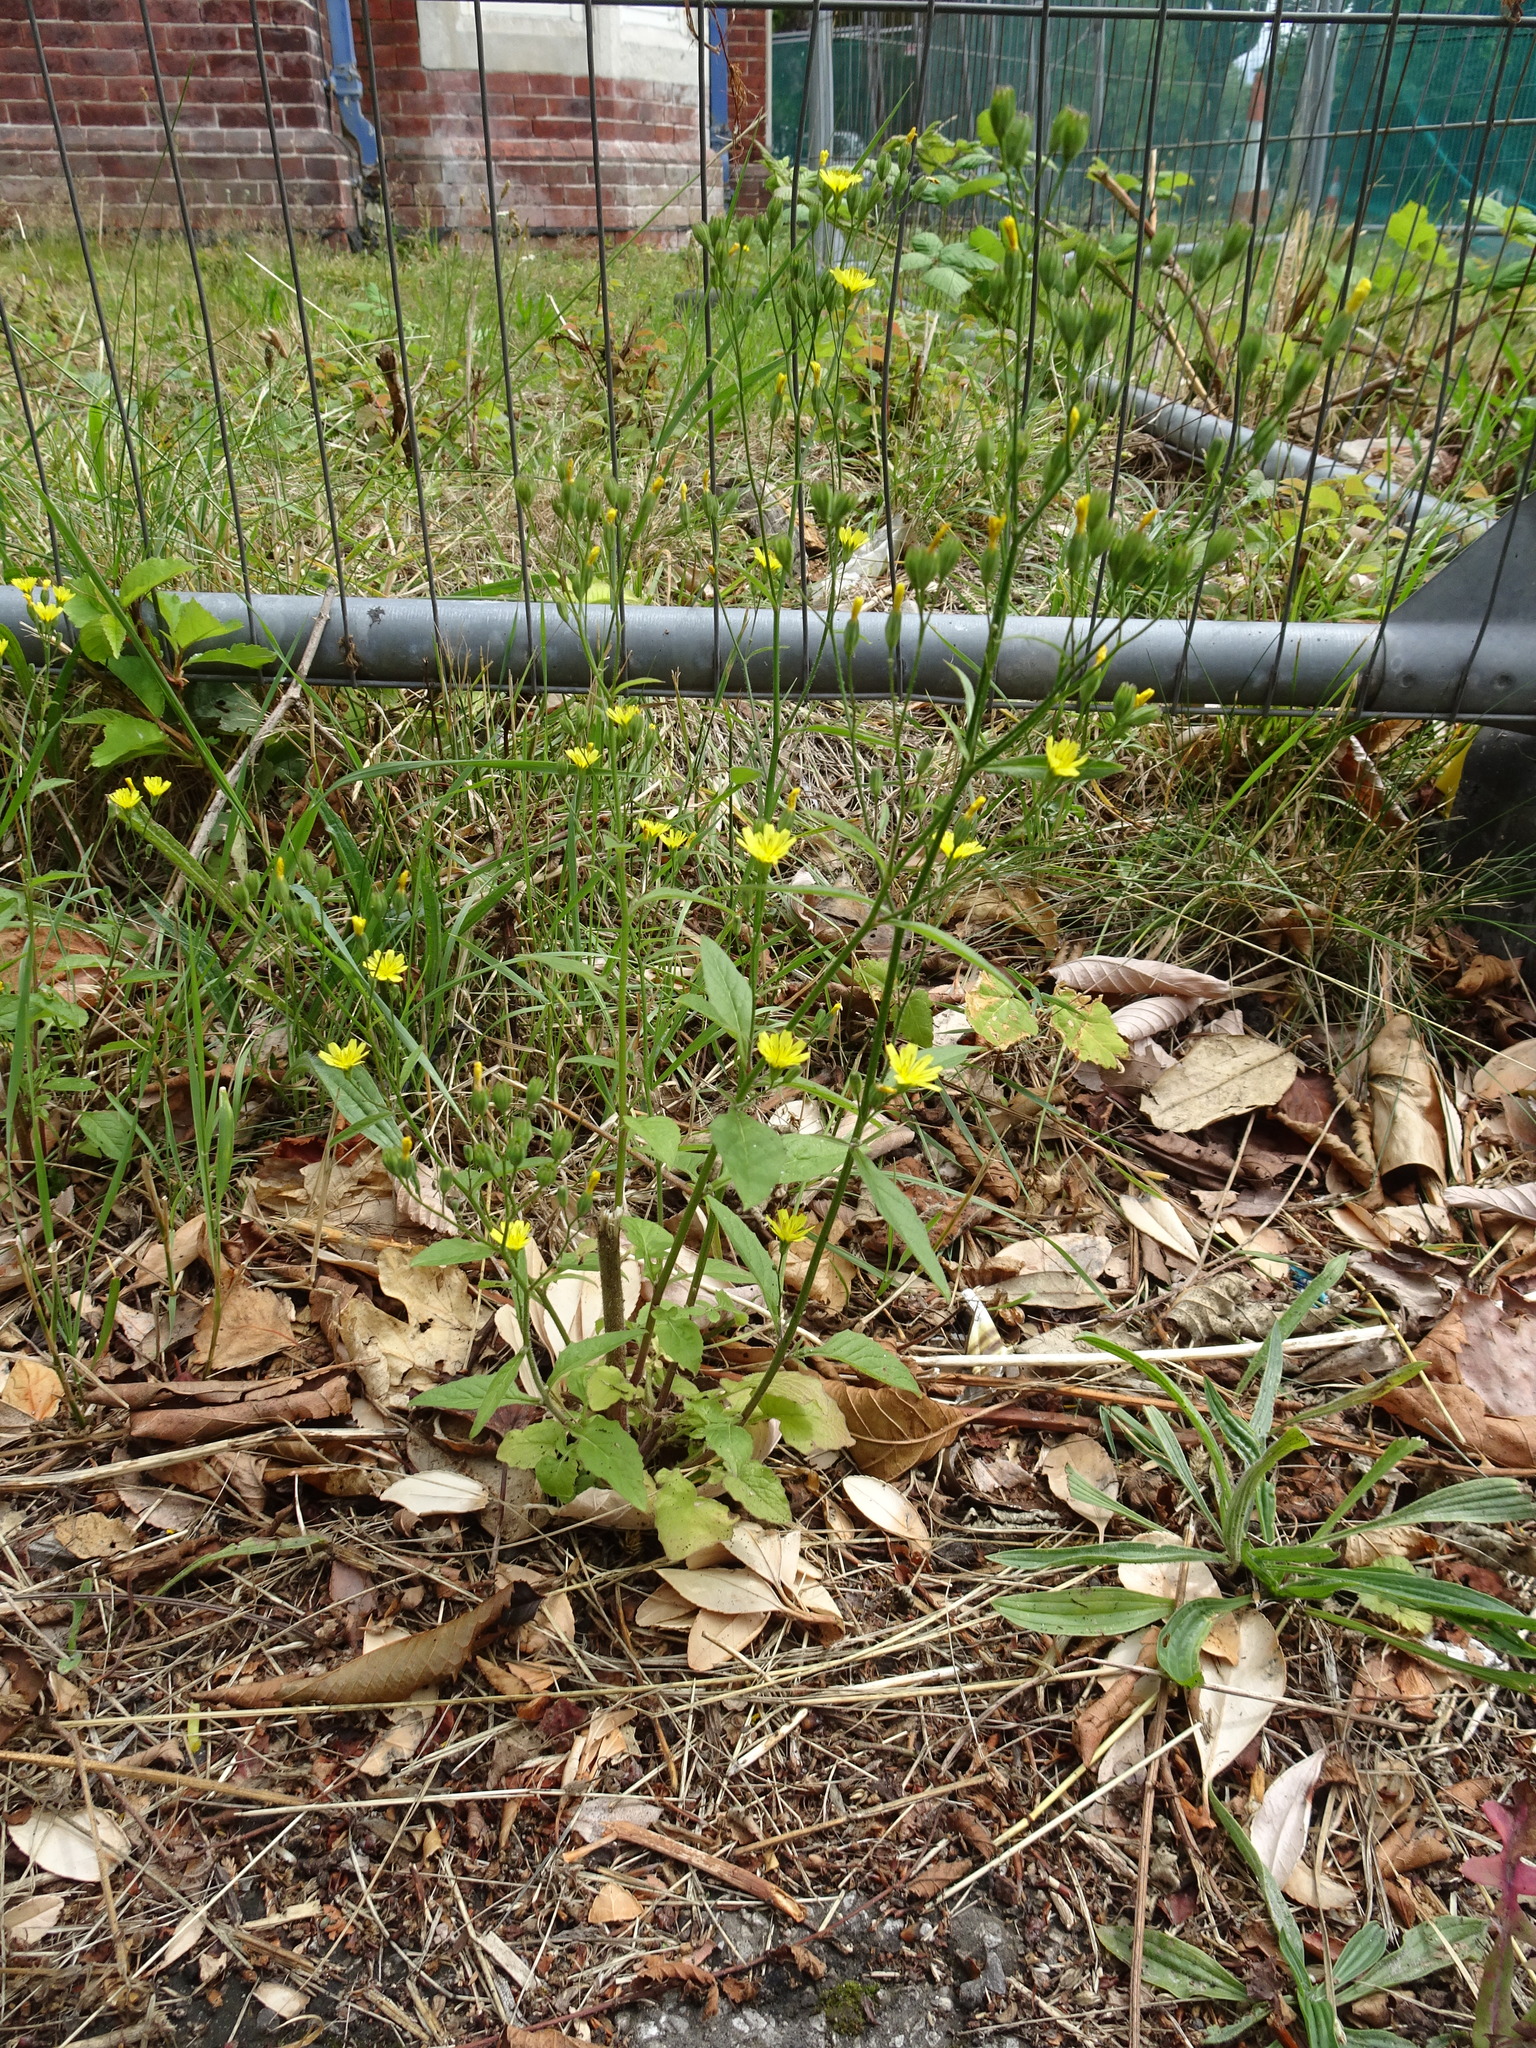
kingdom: Plantae
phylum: Tracheophyta
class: Magnoliopsida
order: Asterales
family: Asteraceae
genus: Lapsana
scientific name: Lapsana communis
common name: Nipplewort
